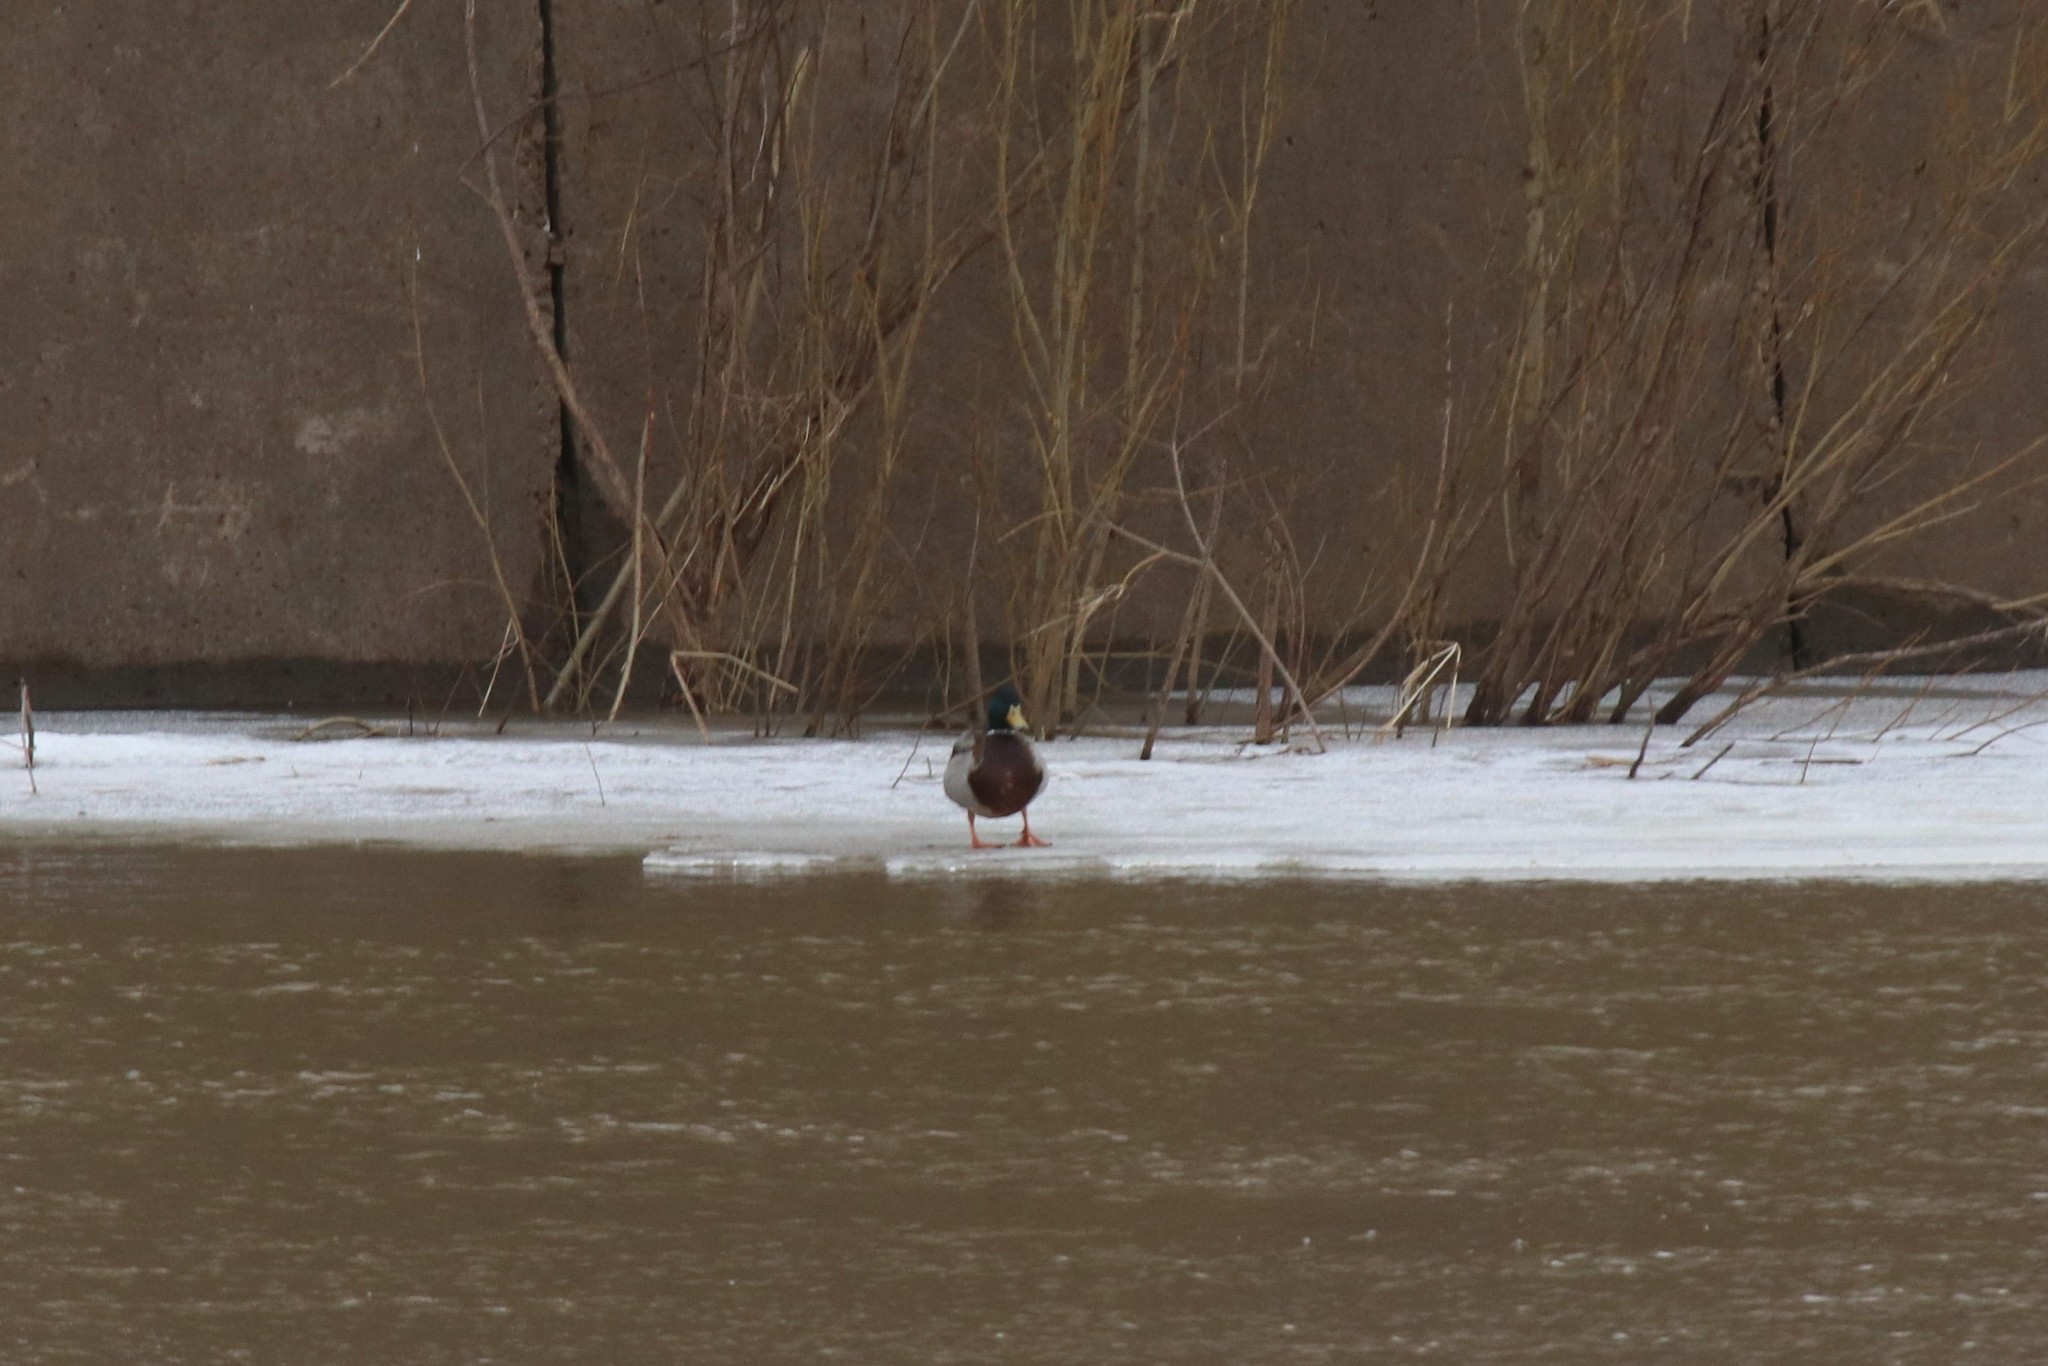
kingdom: Animalia
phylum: Chordata
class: Aves
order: Anseriformes
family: Anatidae
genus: Anas
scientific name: Anas platyrhynchos
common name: Mallard
